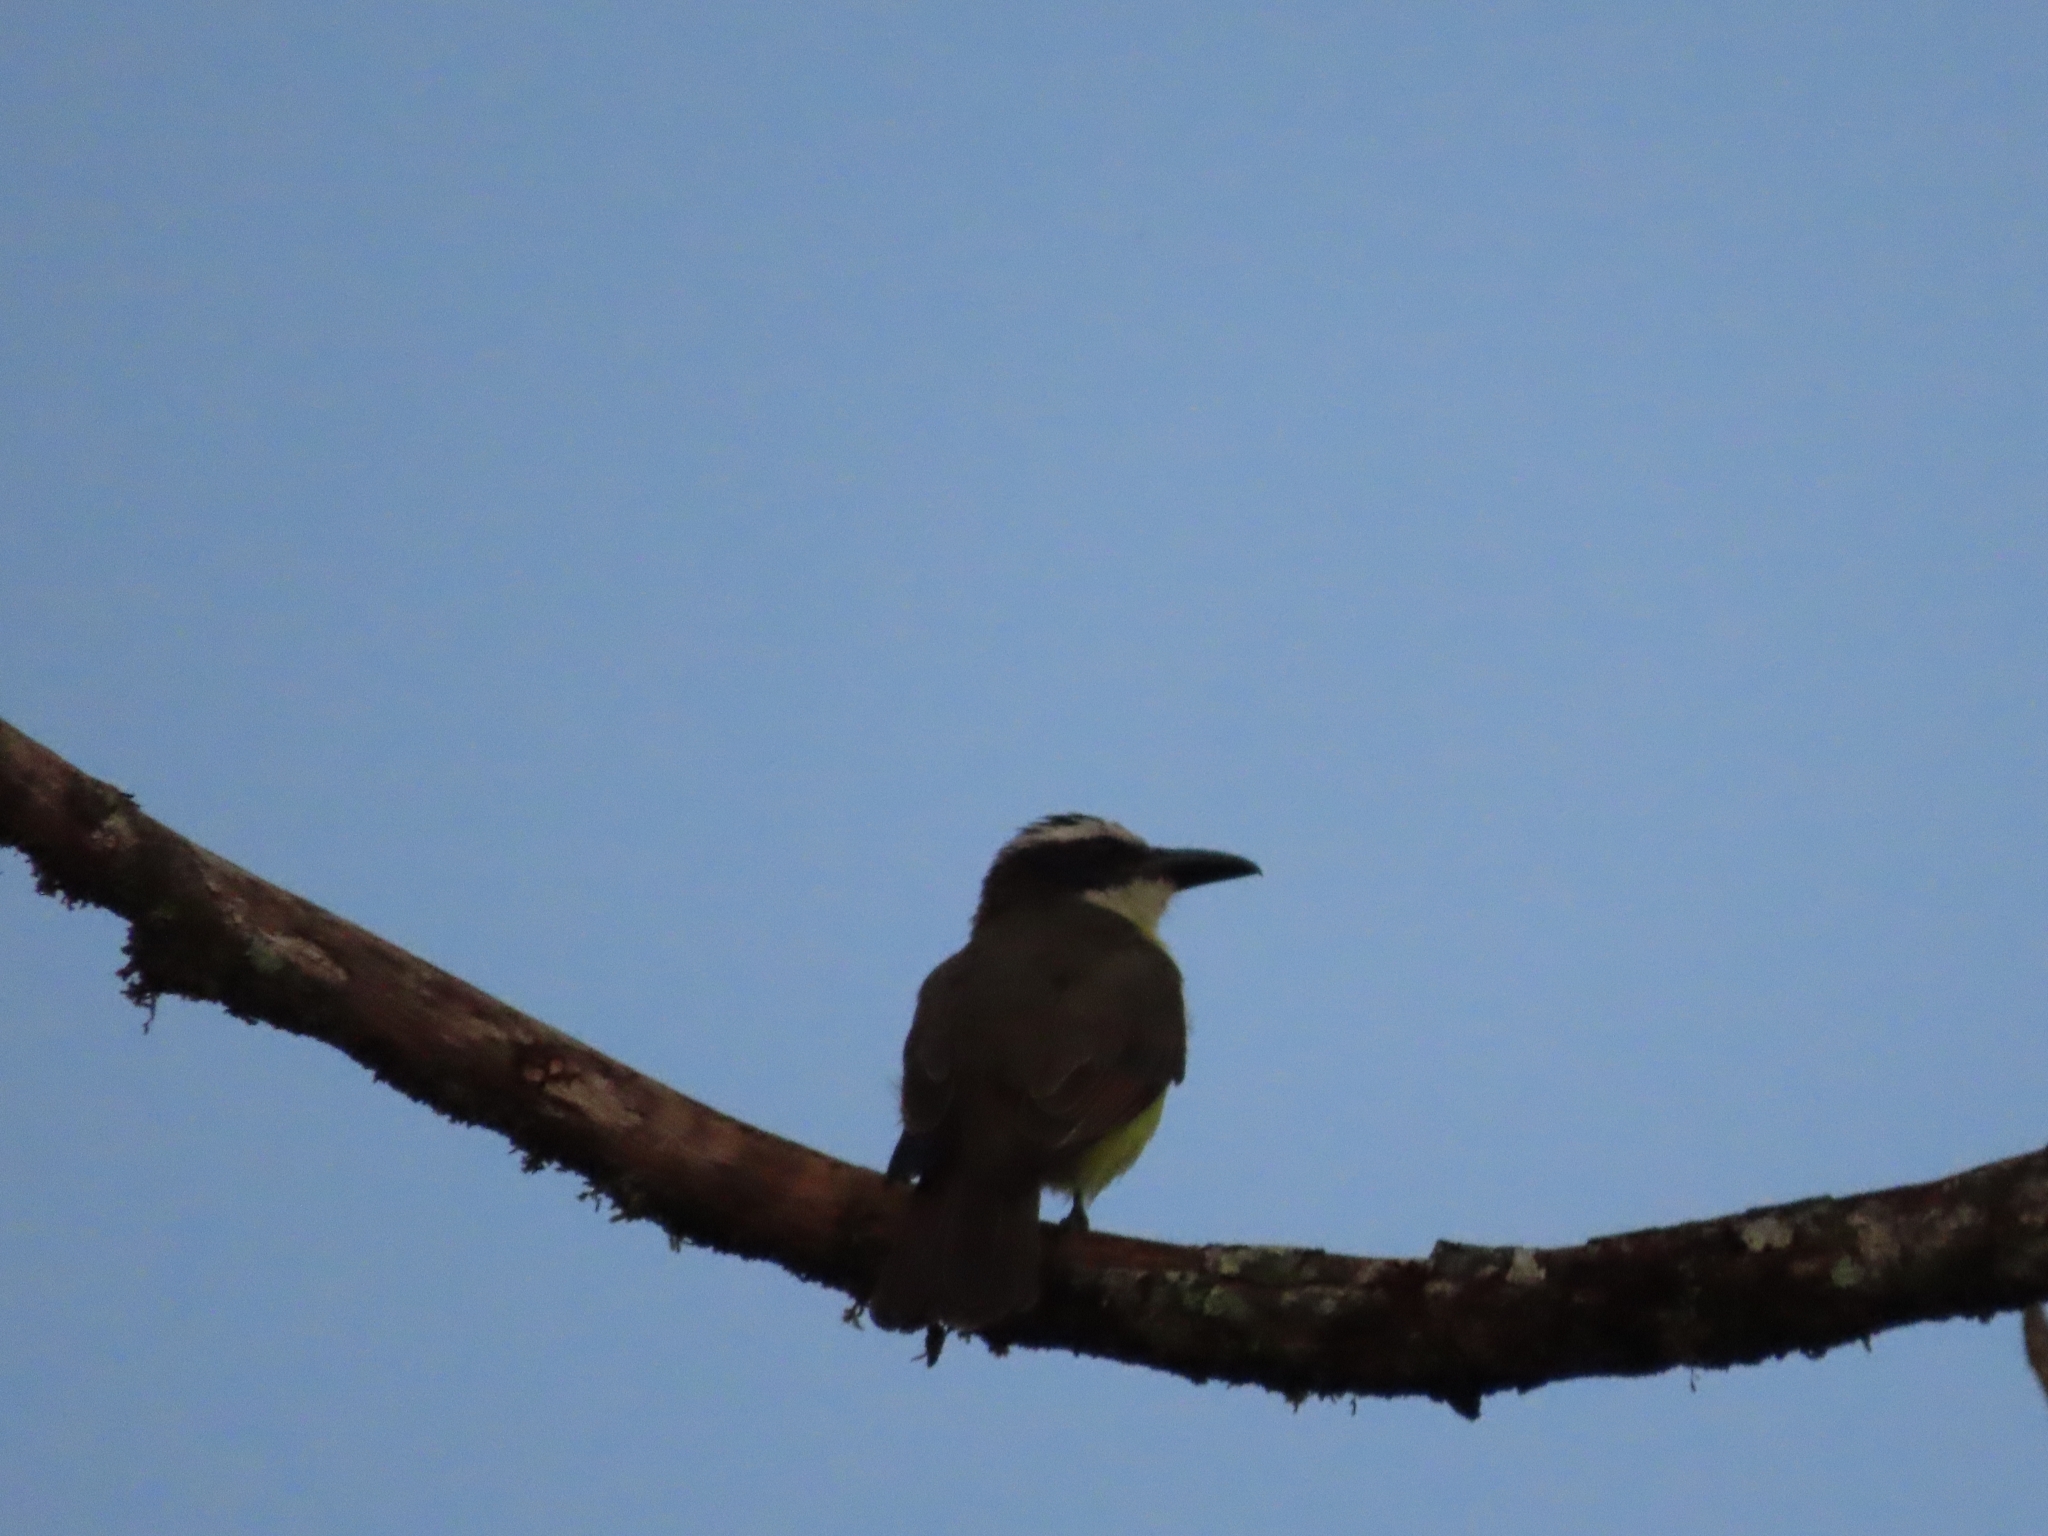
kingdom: Animalia
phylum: Chordata
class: Aves
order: Passeriformes
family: Tyrannidae
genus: Megarynchus
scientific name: Megarynchus pitangua
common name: Boat-billed flycatcher
